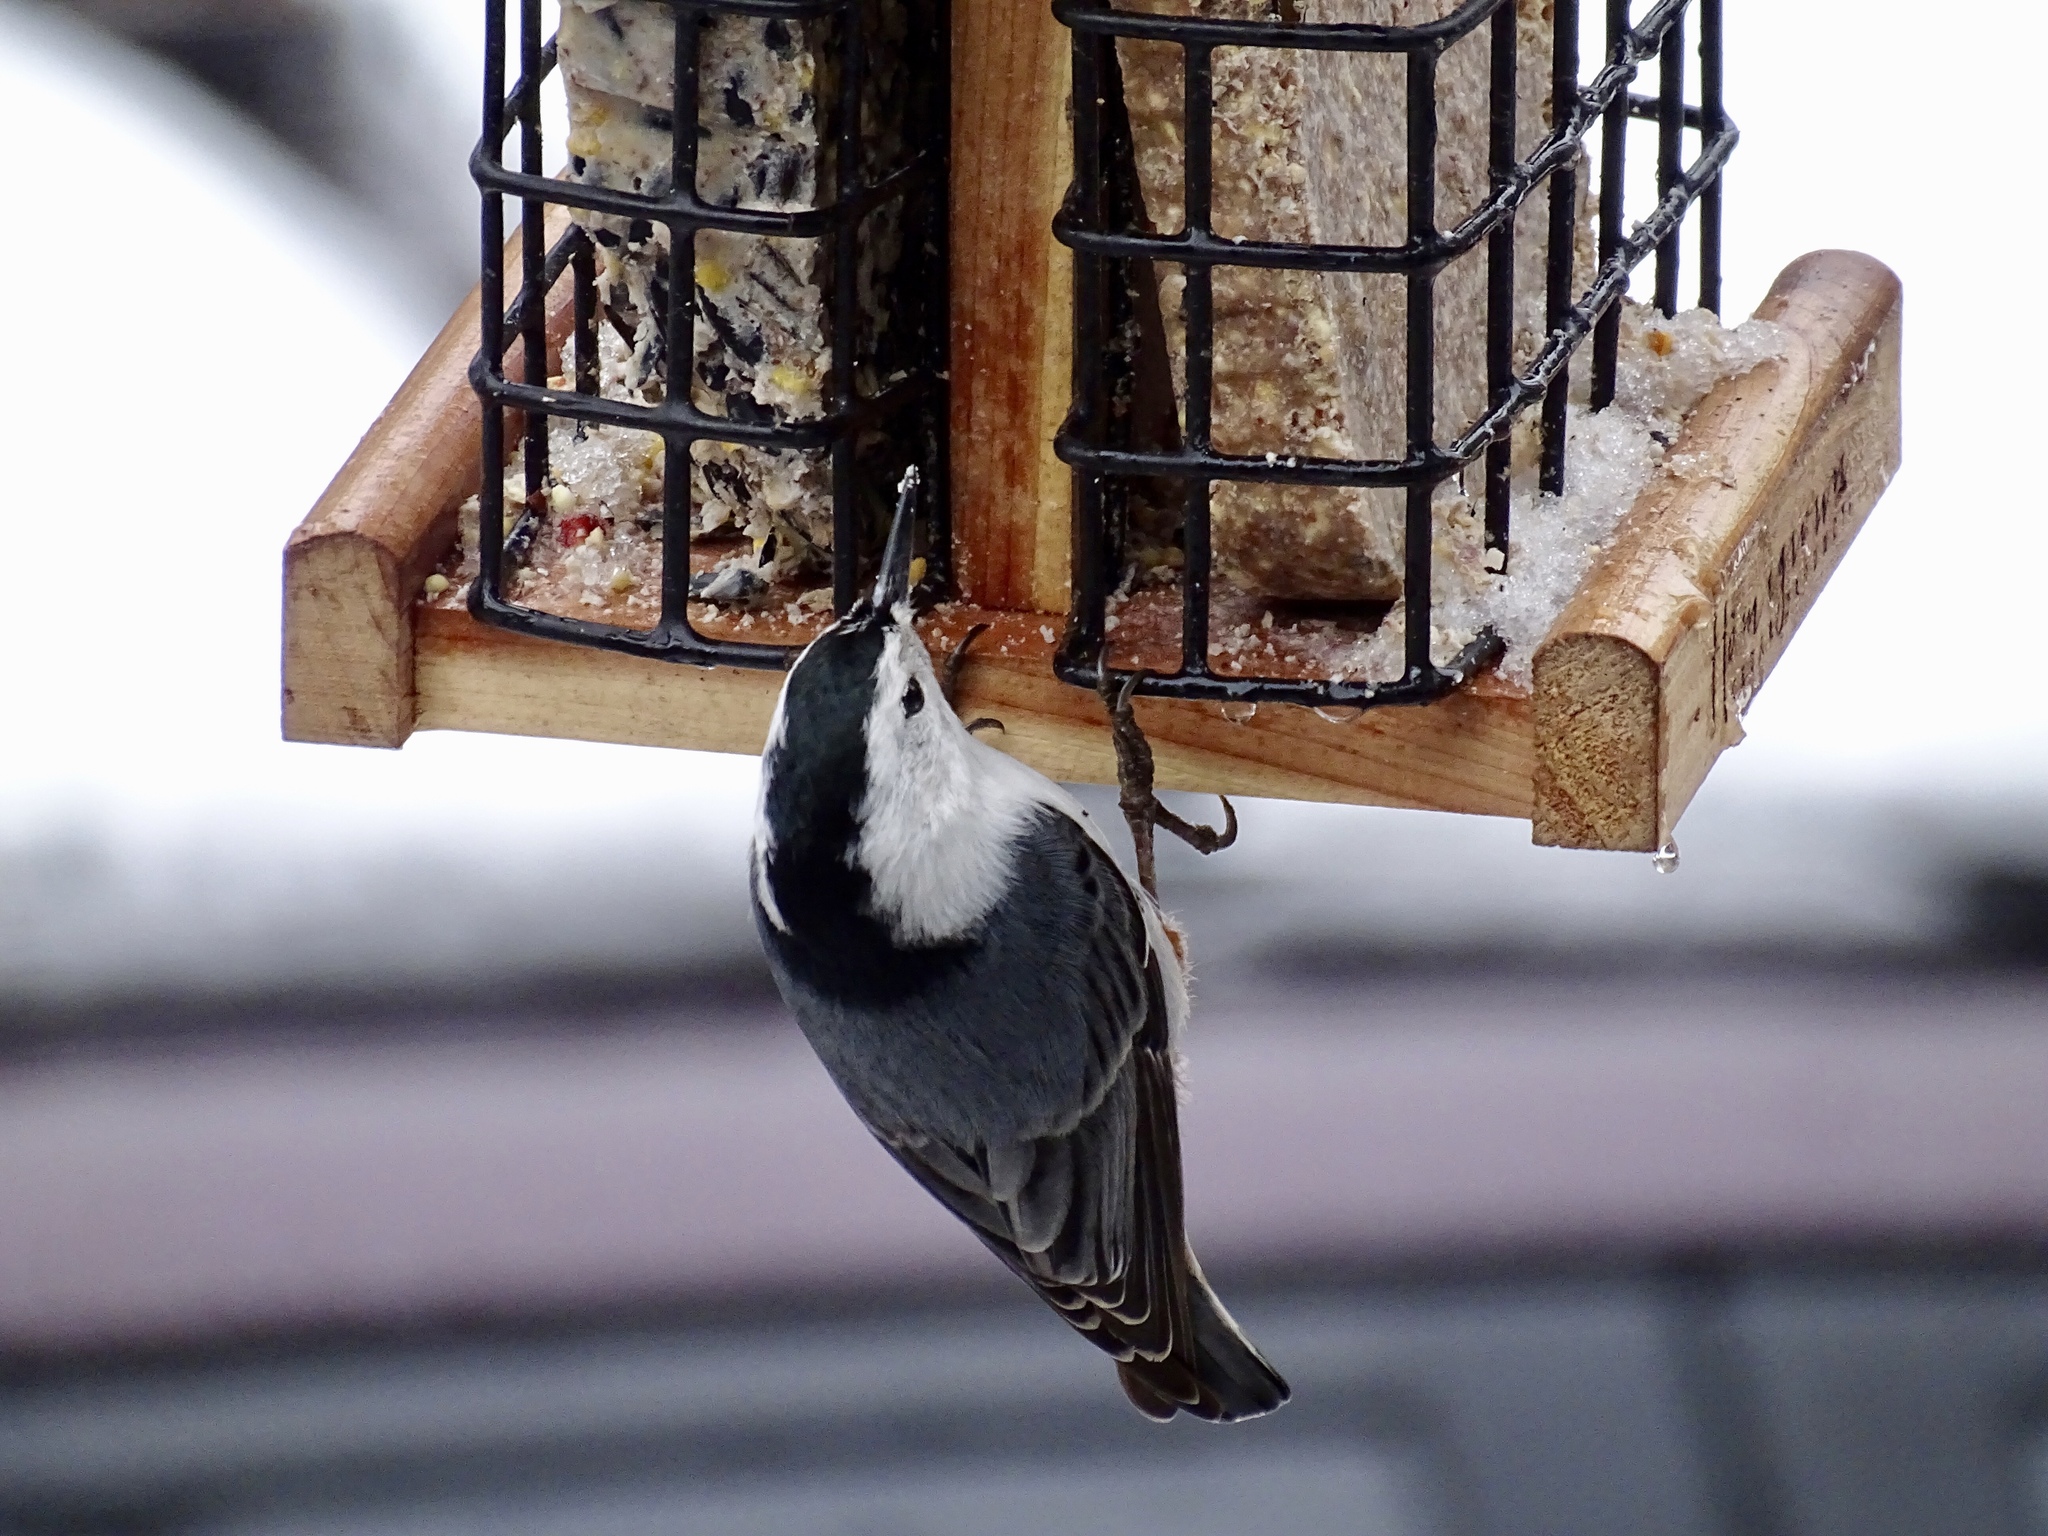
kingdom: Animalia
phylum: Chordata
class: Aves
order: Passeriformes
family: Sittidae
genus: Sitta
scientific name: Sitta carolinensis
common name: White-breasted nuthatch
